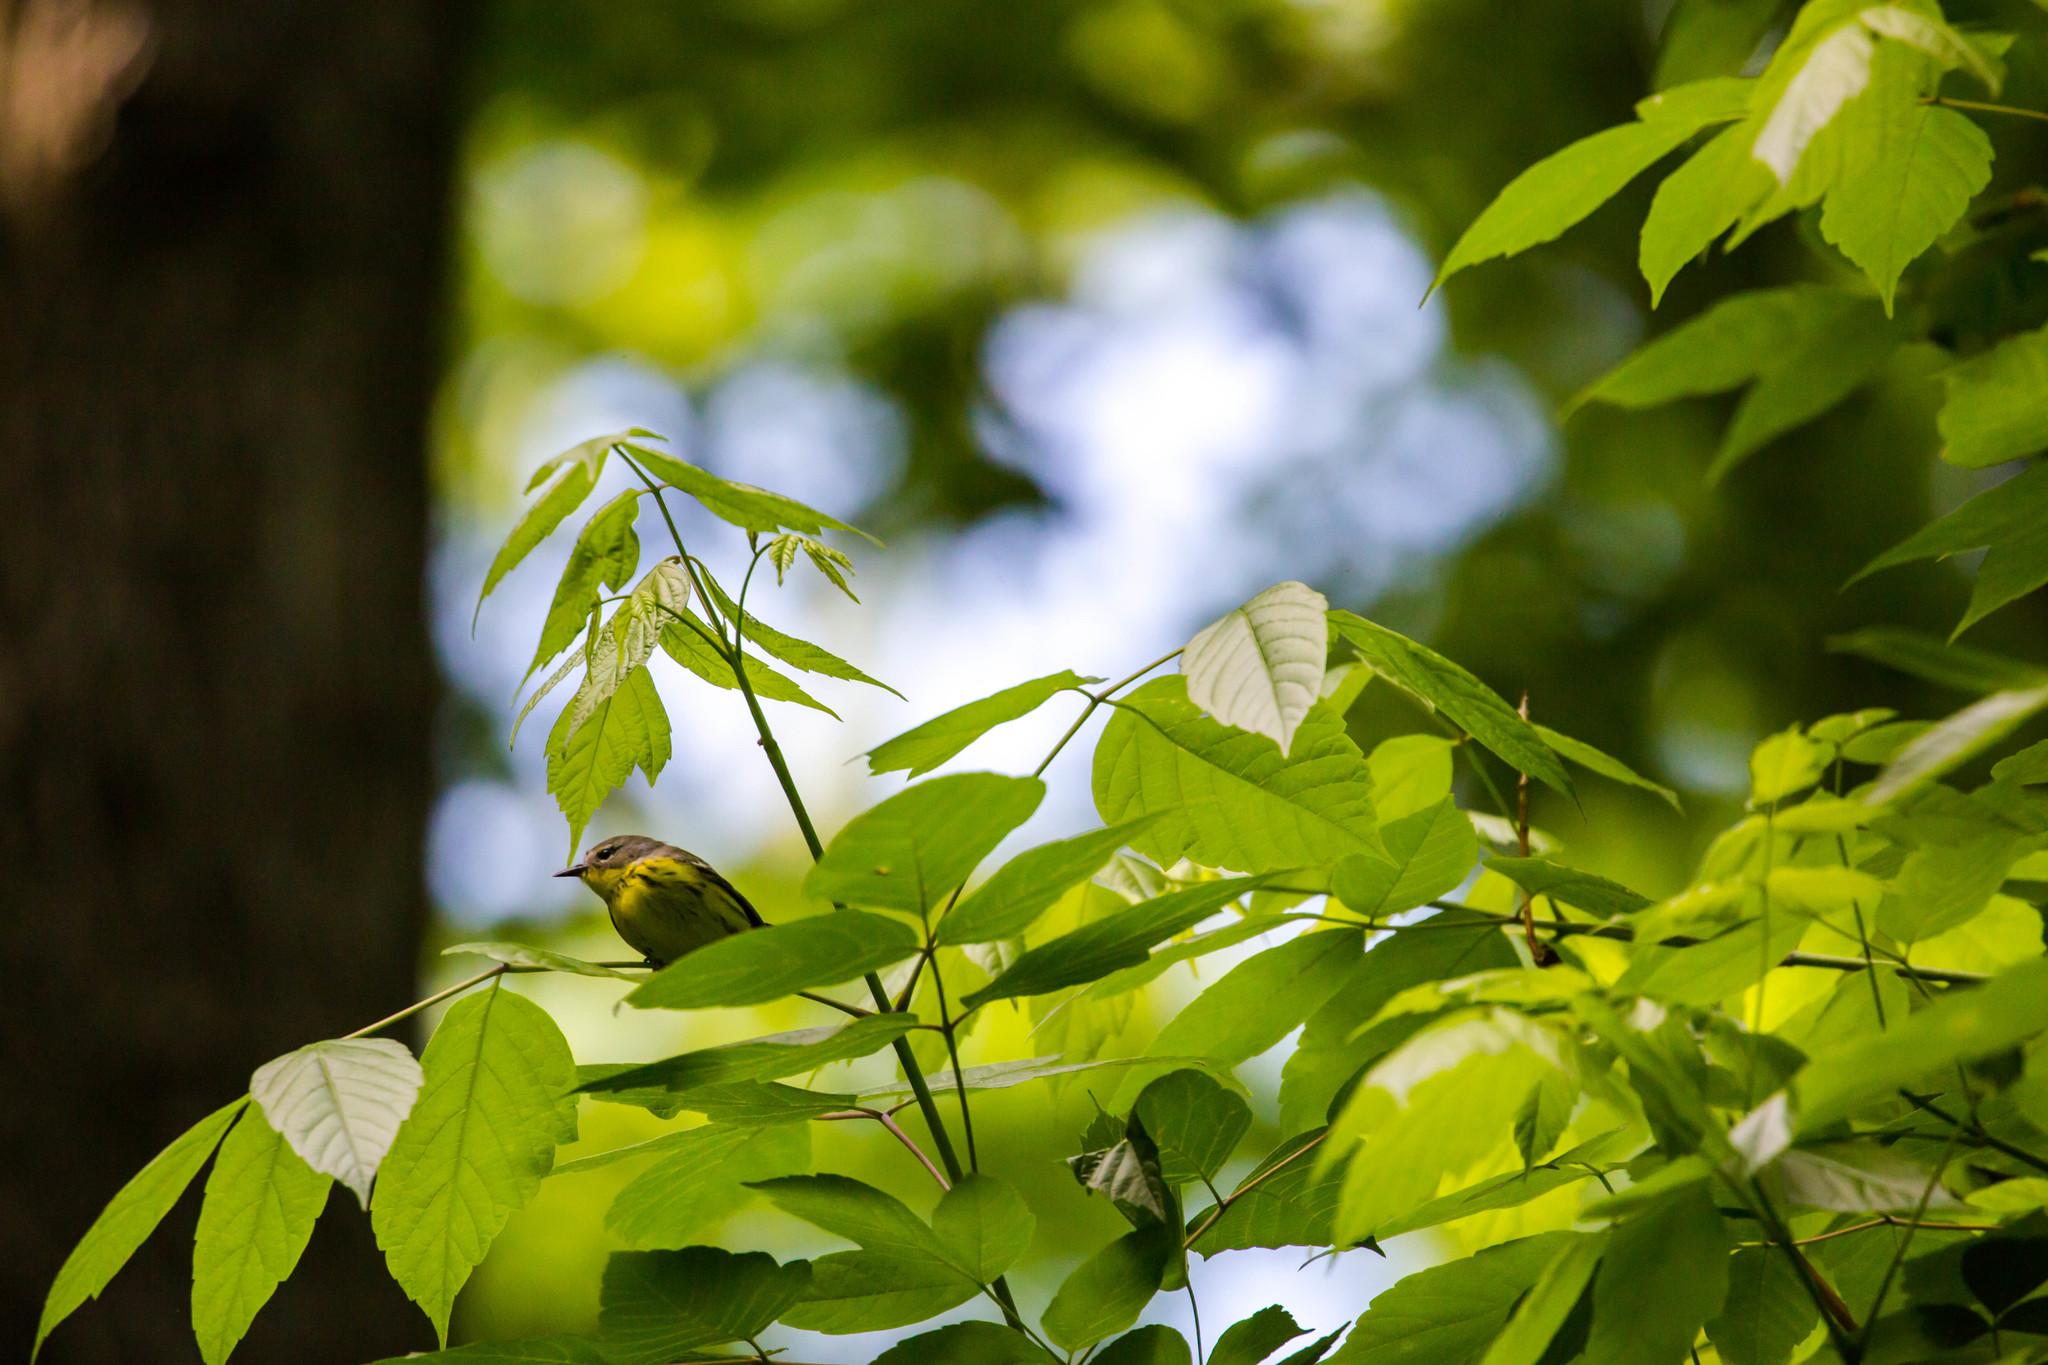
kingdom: Animalia
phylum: Chordata
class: Aves
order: Passeriformes
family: Parulidae
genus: Setophaga
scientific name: Setophaga magnolia
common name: Magnolia warbler
